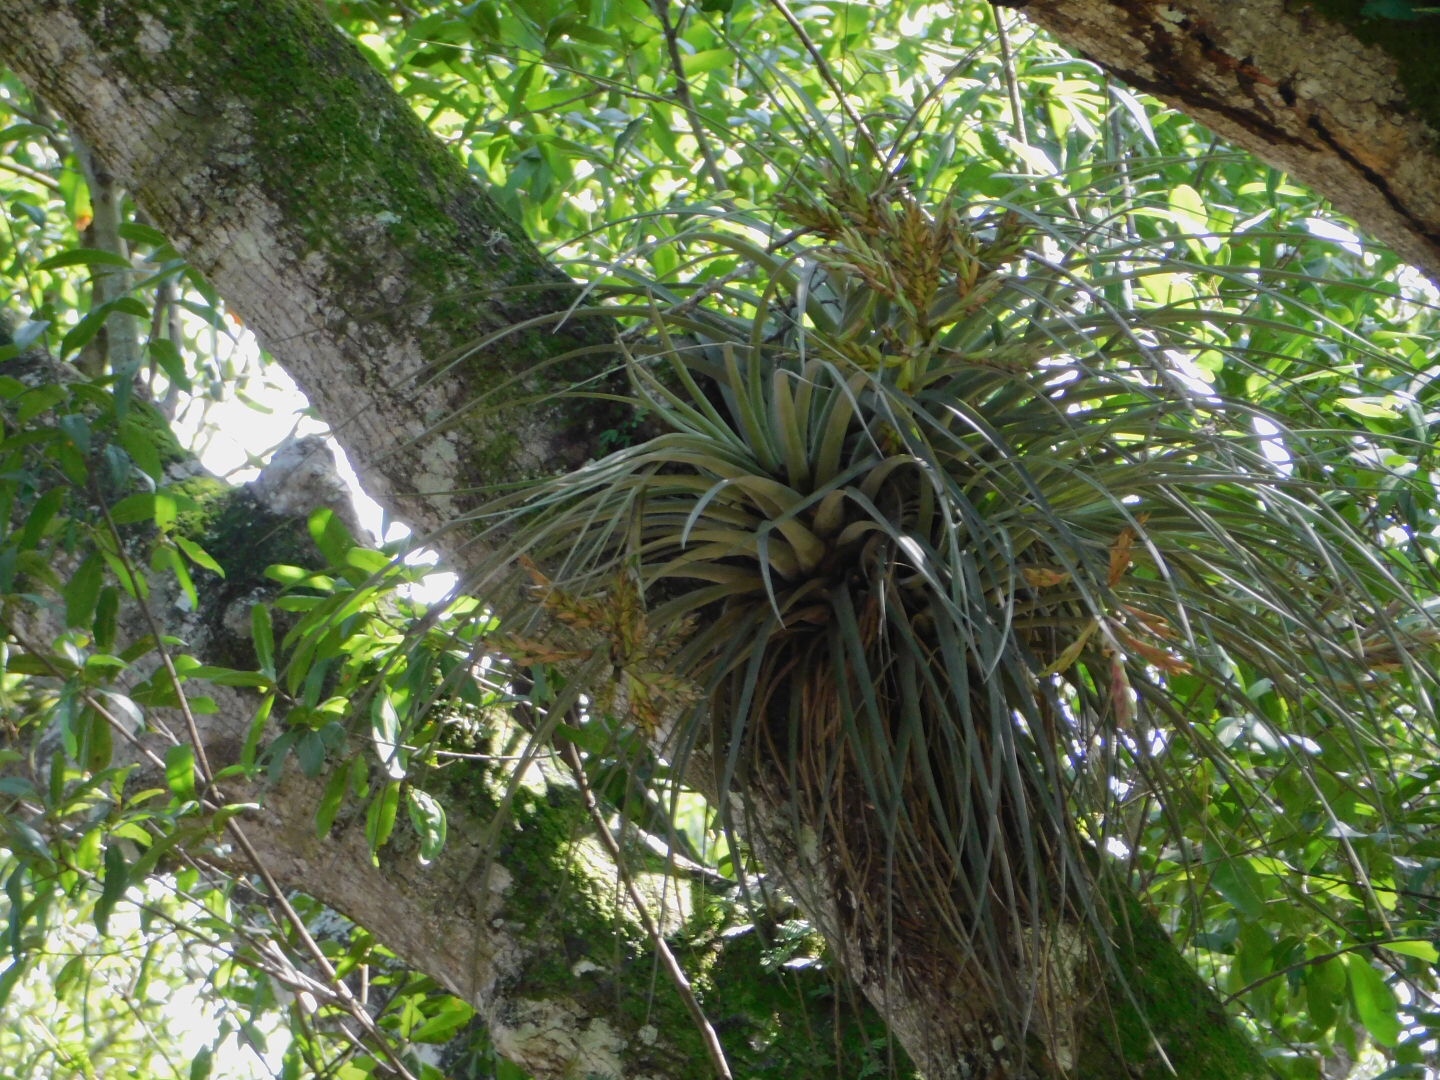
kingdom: Plantae
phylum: Tracheophyta
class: Liliopsida
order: Poales
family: Bromeliaceae
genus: Tillandsia
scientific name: Tillandsia fasciculata
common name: Giant airplant
